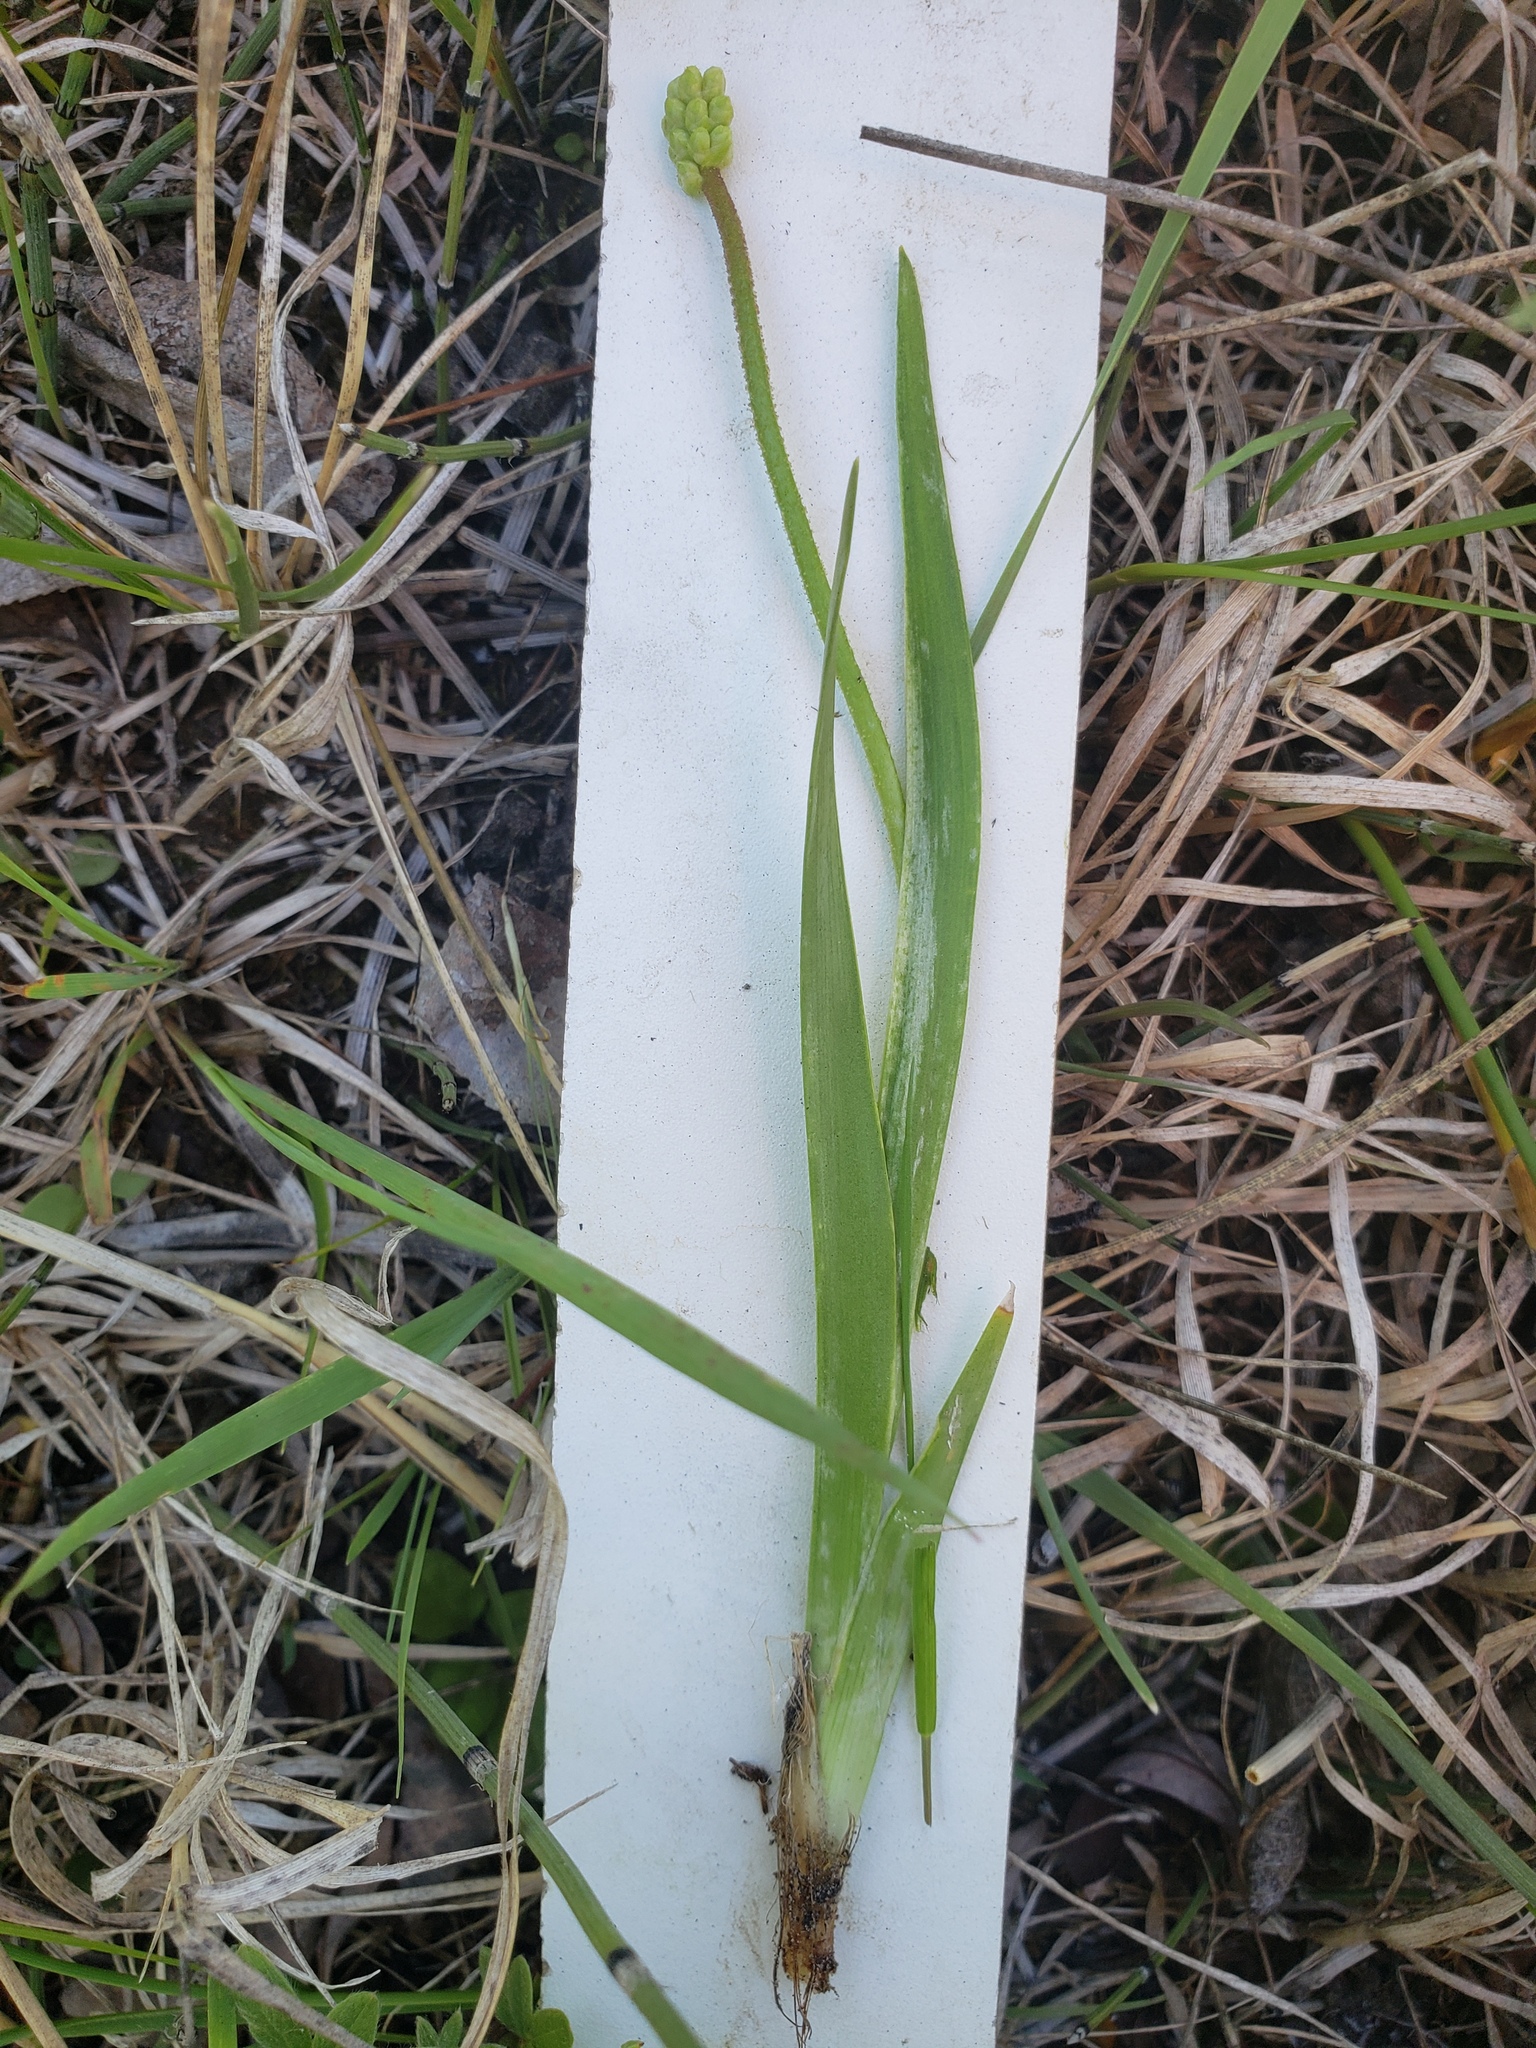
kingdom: Plantae
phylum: Tracheophyta
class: Liliopsida
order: Alismatales
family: Tofieldiaceae
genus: Triantha
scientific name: Triantha glutinosa
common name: Glutinous tofieldia
